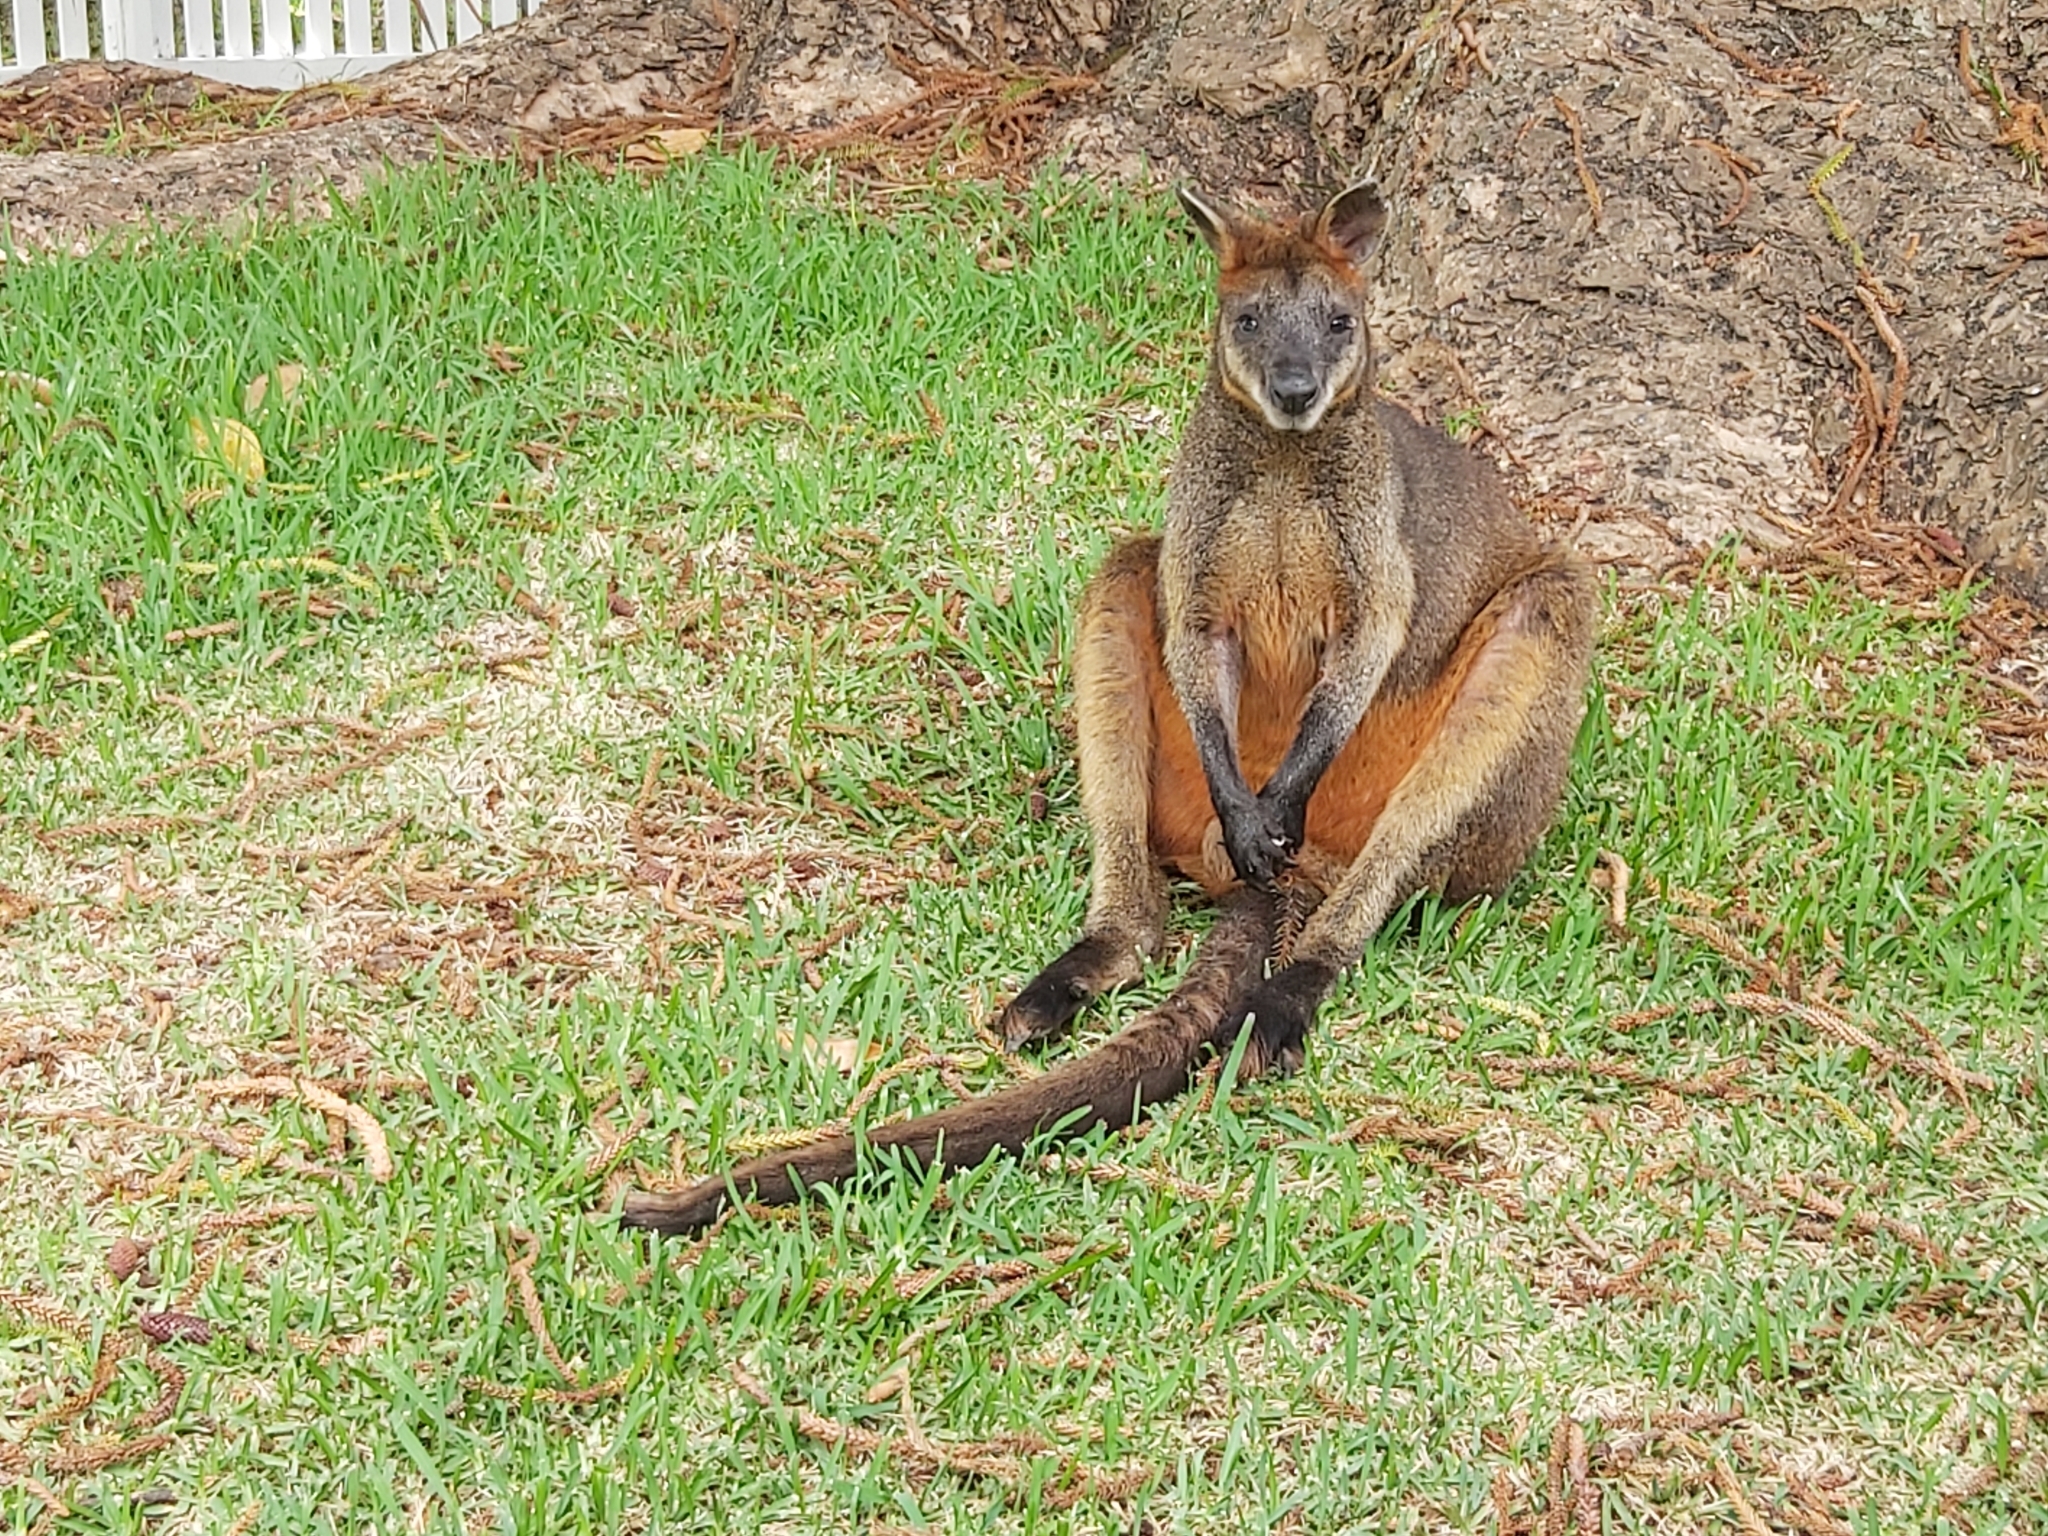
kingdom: Animalia
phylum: Chordata
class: Mammalia
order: Diprotodontia
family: Macropodidae
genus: Wallabia
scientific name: Wallabia bicolor
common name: Swamp wallaby
